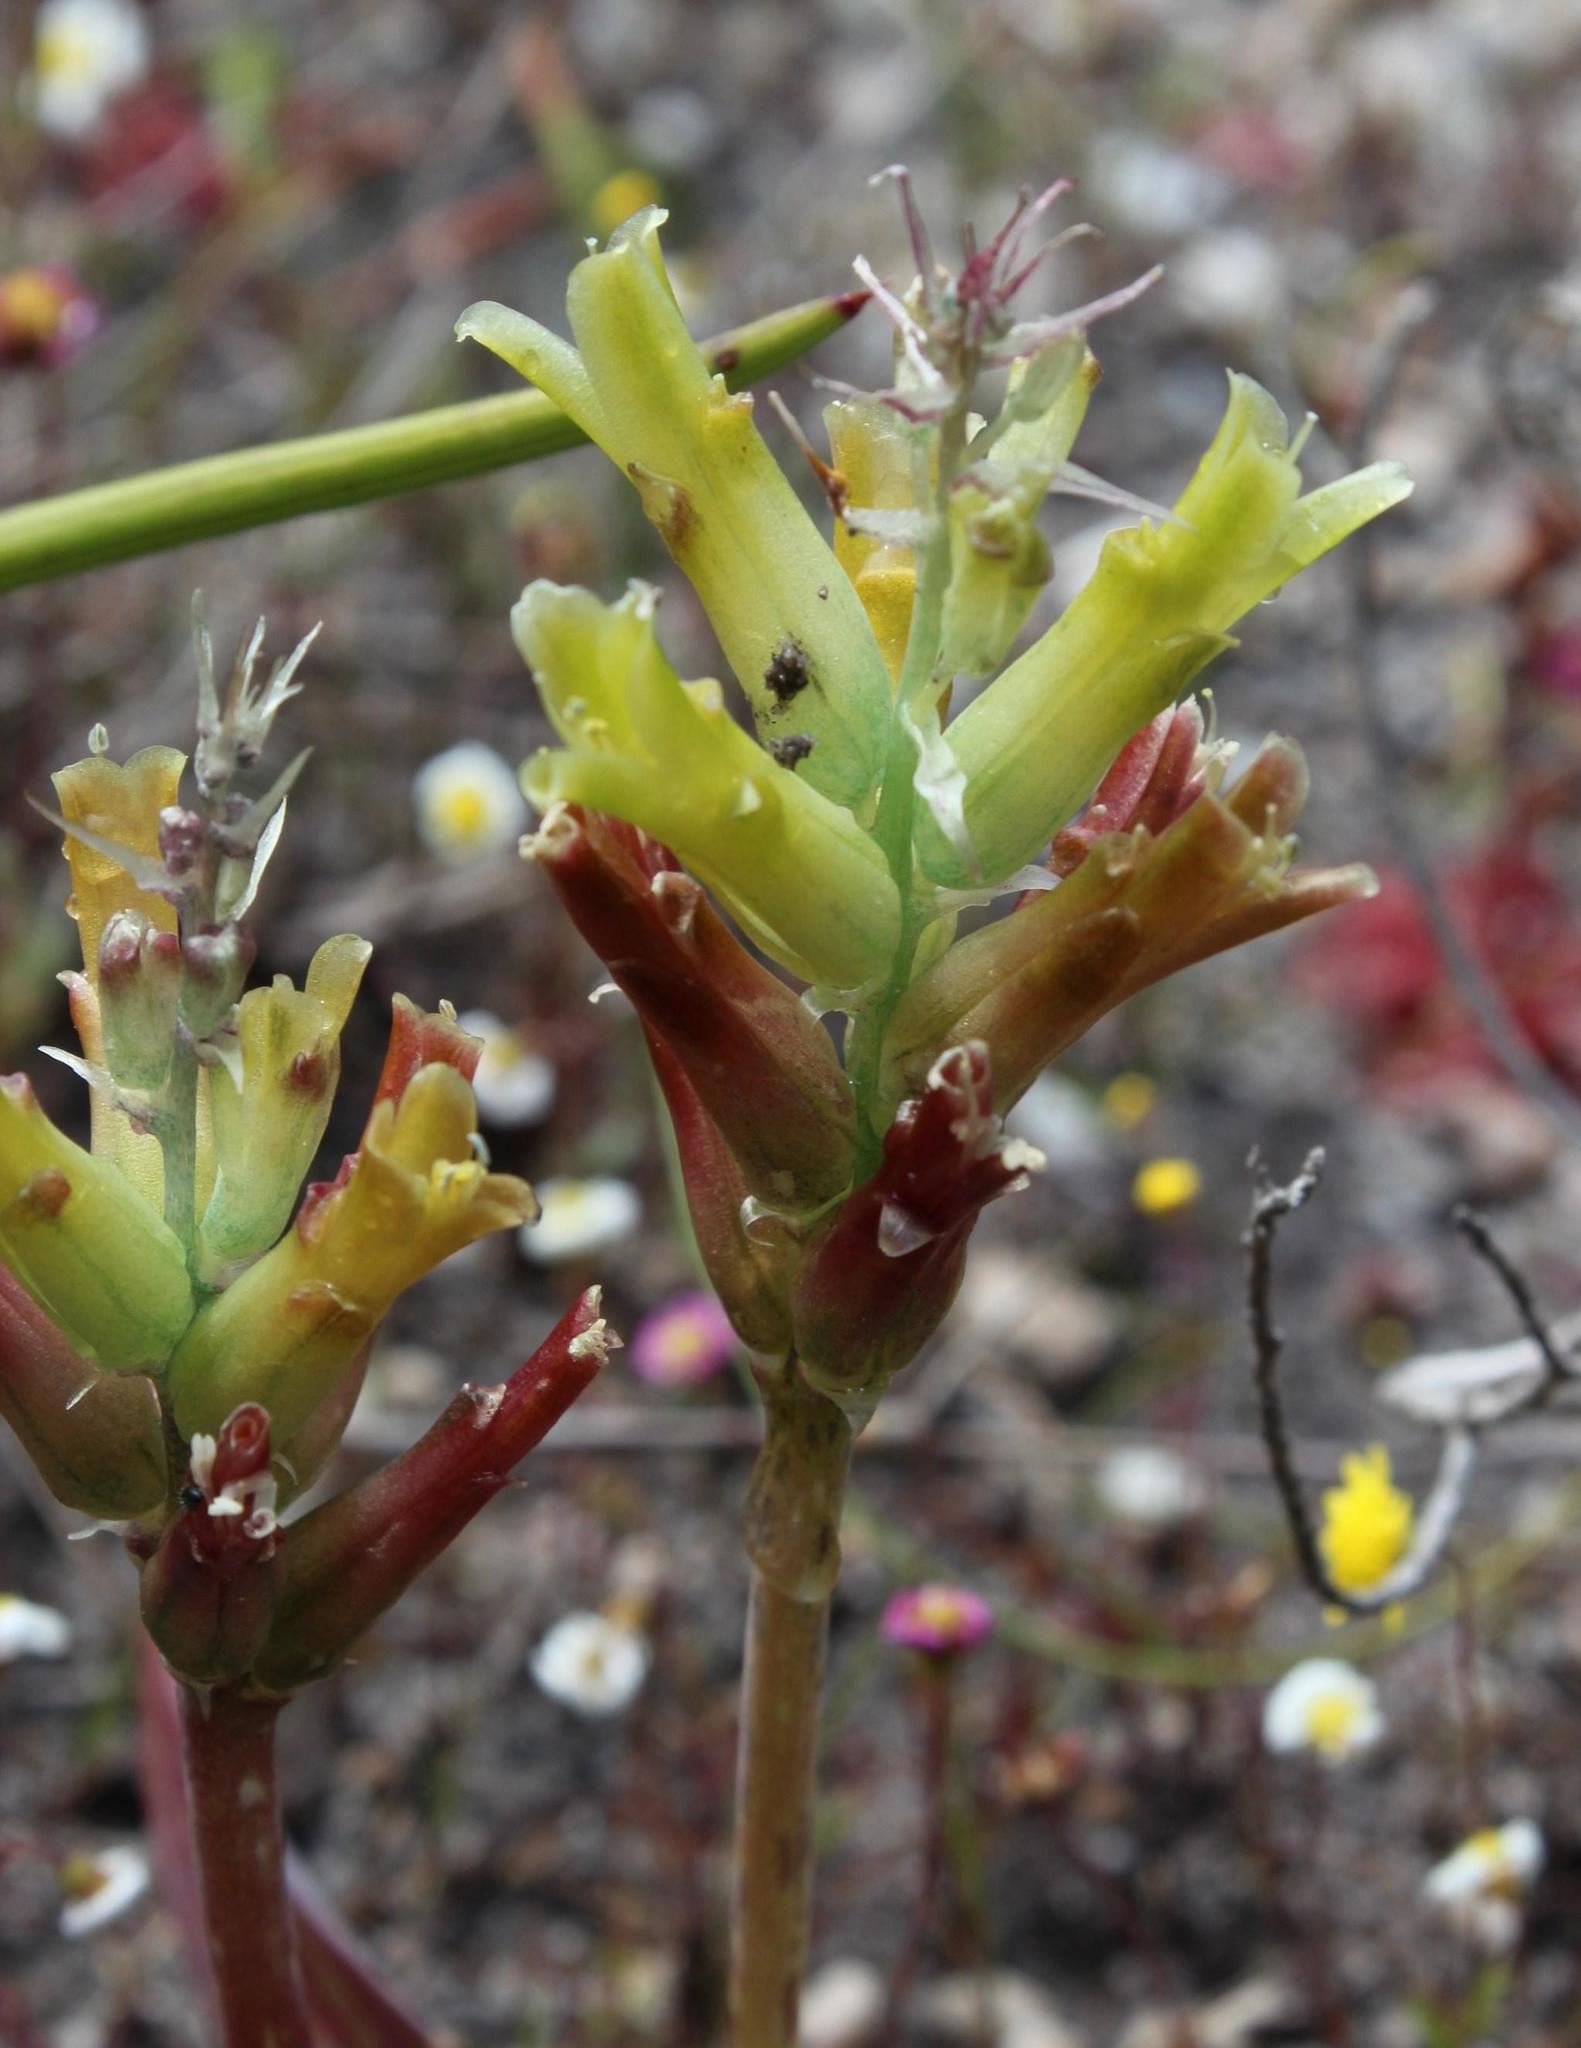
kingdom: Plantae
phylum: Tracheophyta
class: Liliopsida
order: Asparagales
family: Asparagaceae
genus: Lachenalia
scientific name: Lachenalia orchioides
